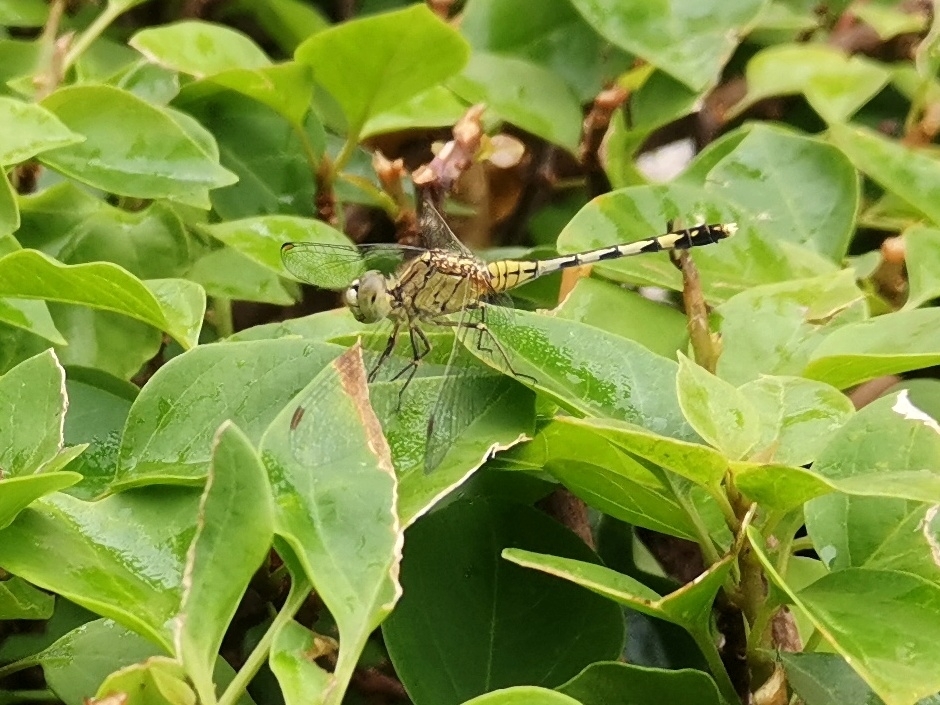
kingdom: Animalia
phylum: Arthropoda
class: Insecta
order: Odonata
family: Libellulidae
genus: Diplacodes
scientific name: Diplacodes trivialis
